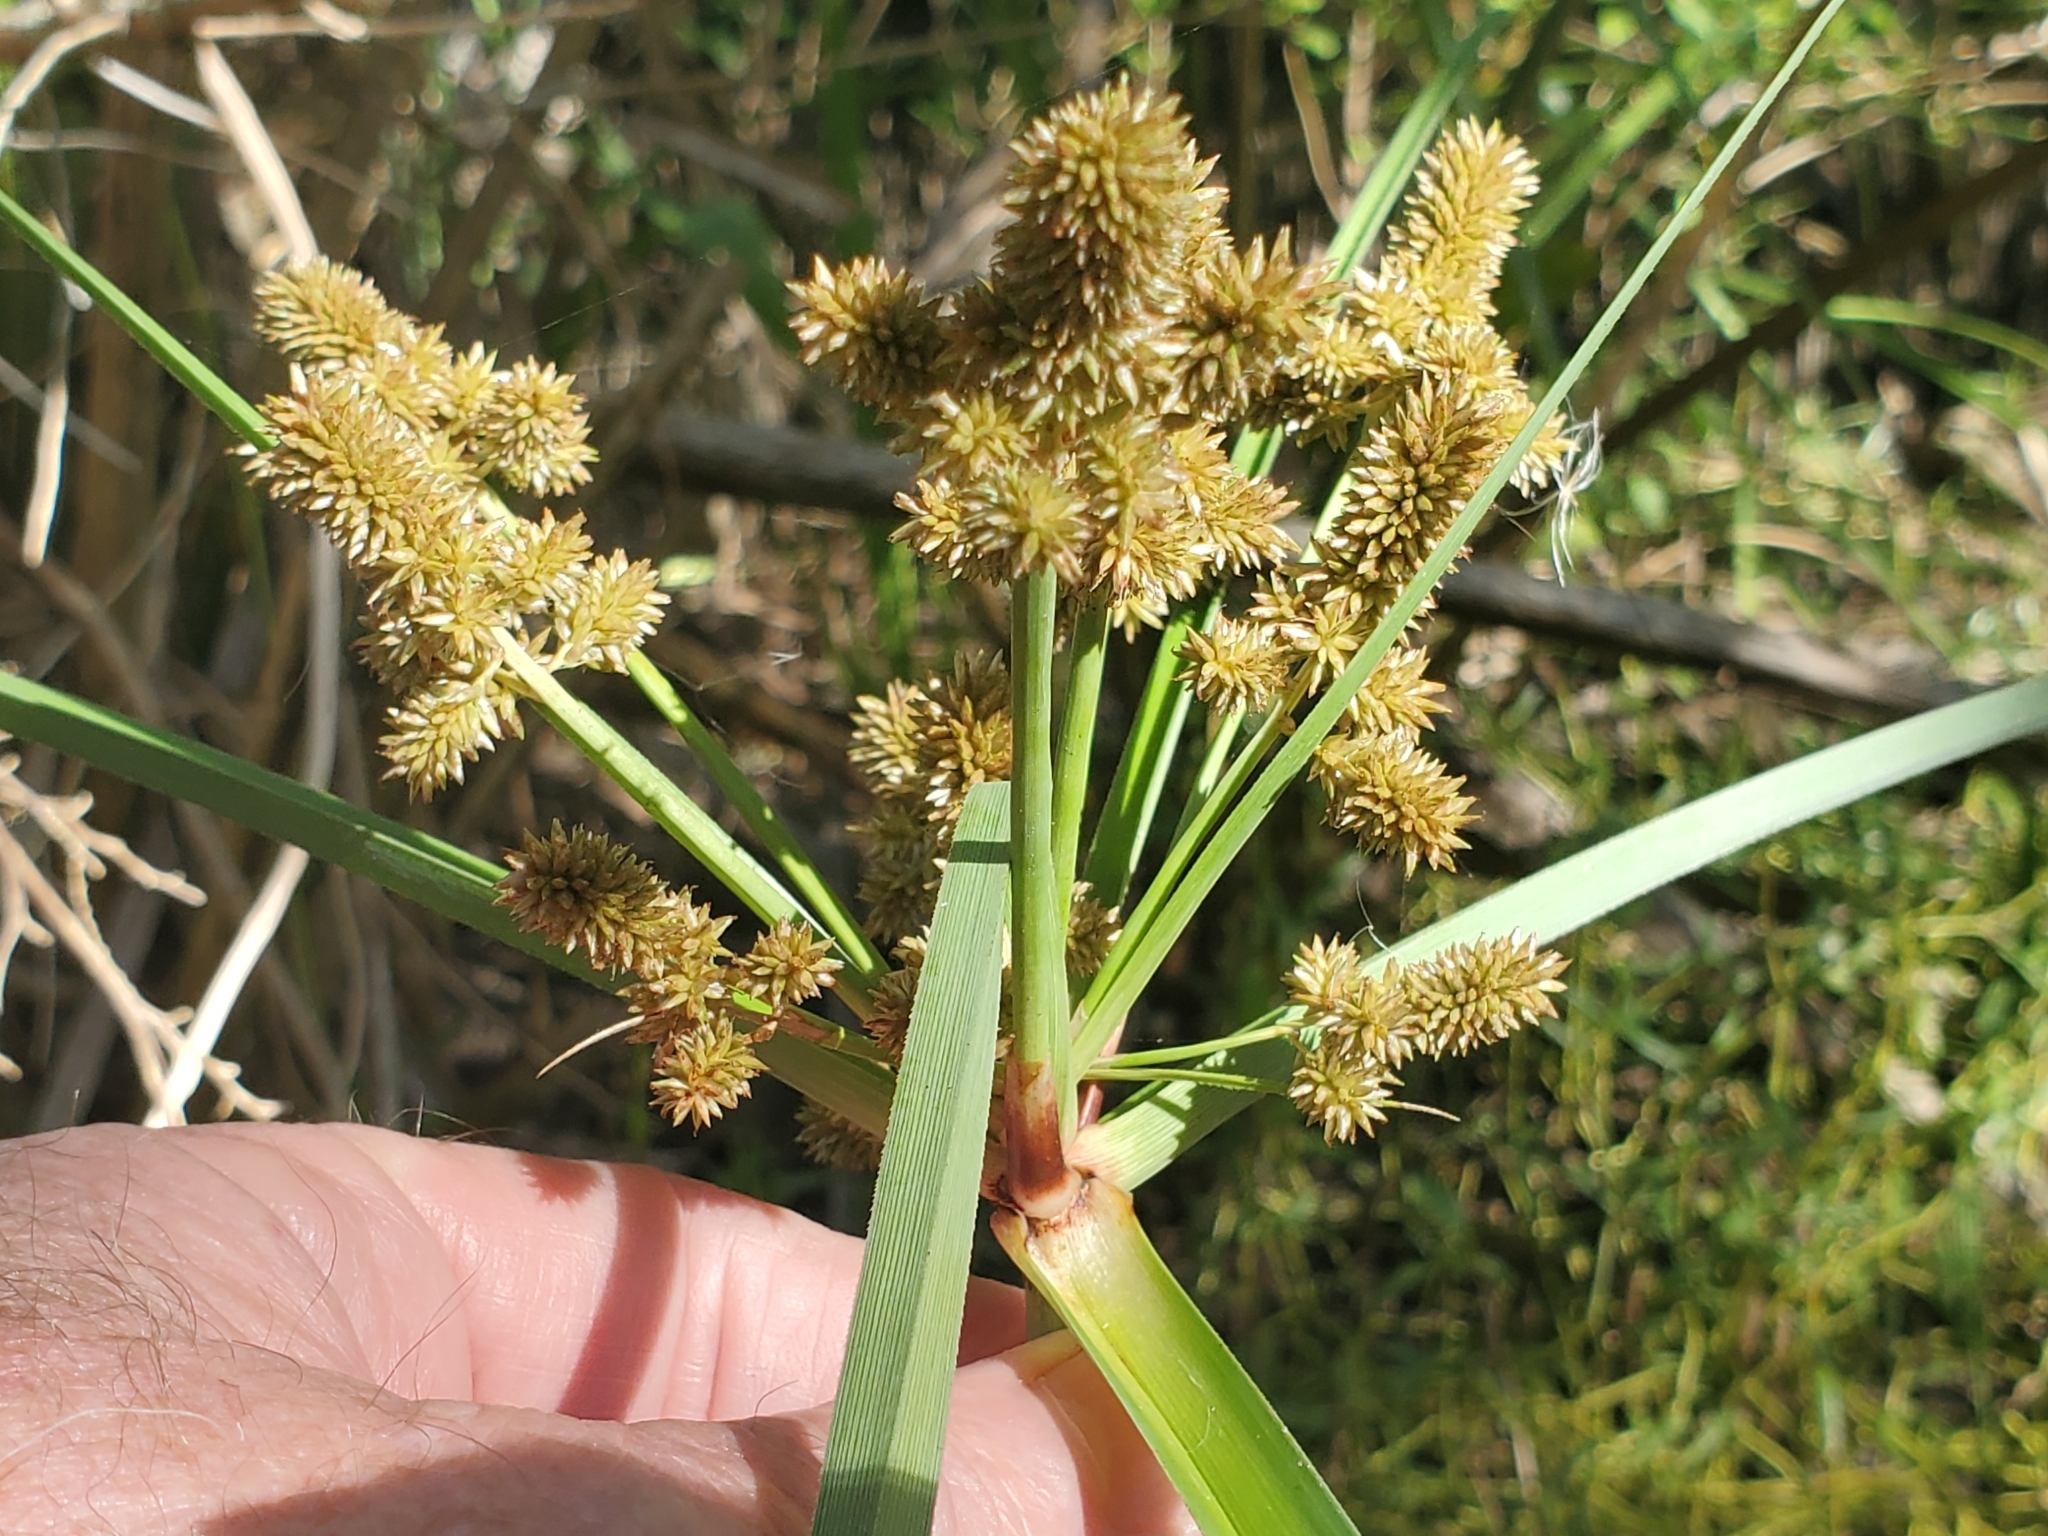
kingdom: Plantae
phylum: Tracheophyta
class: Liliopsida
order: Poales
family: Cyperaceae
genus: Cyperus
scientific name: Cyperus ligularis
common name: Swamp flat sedge
